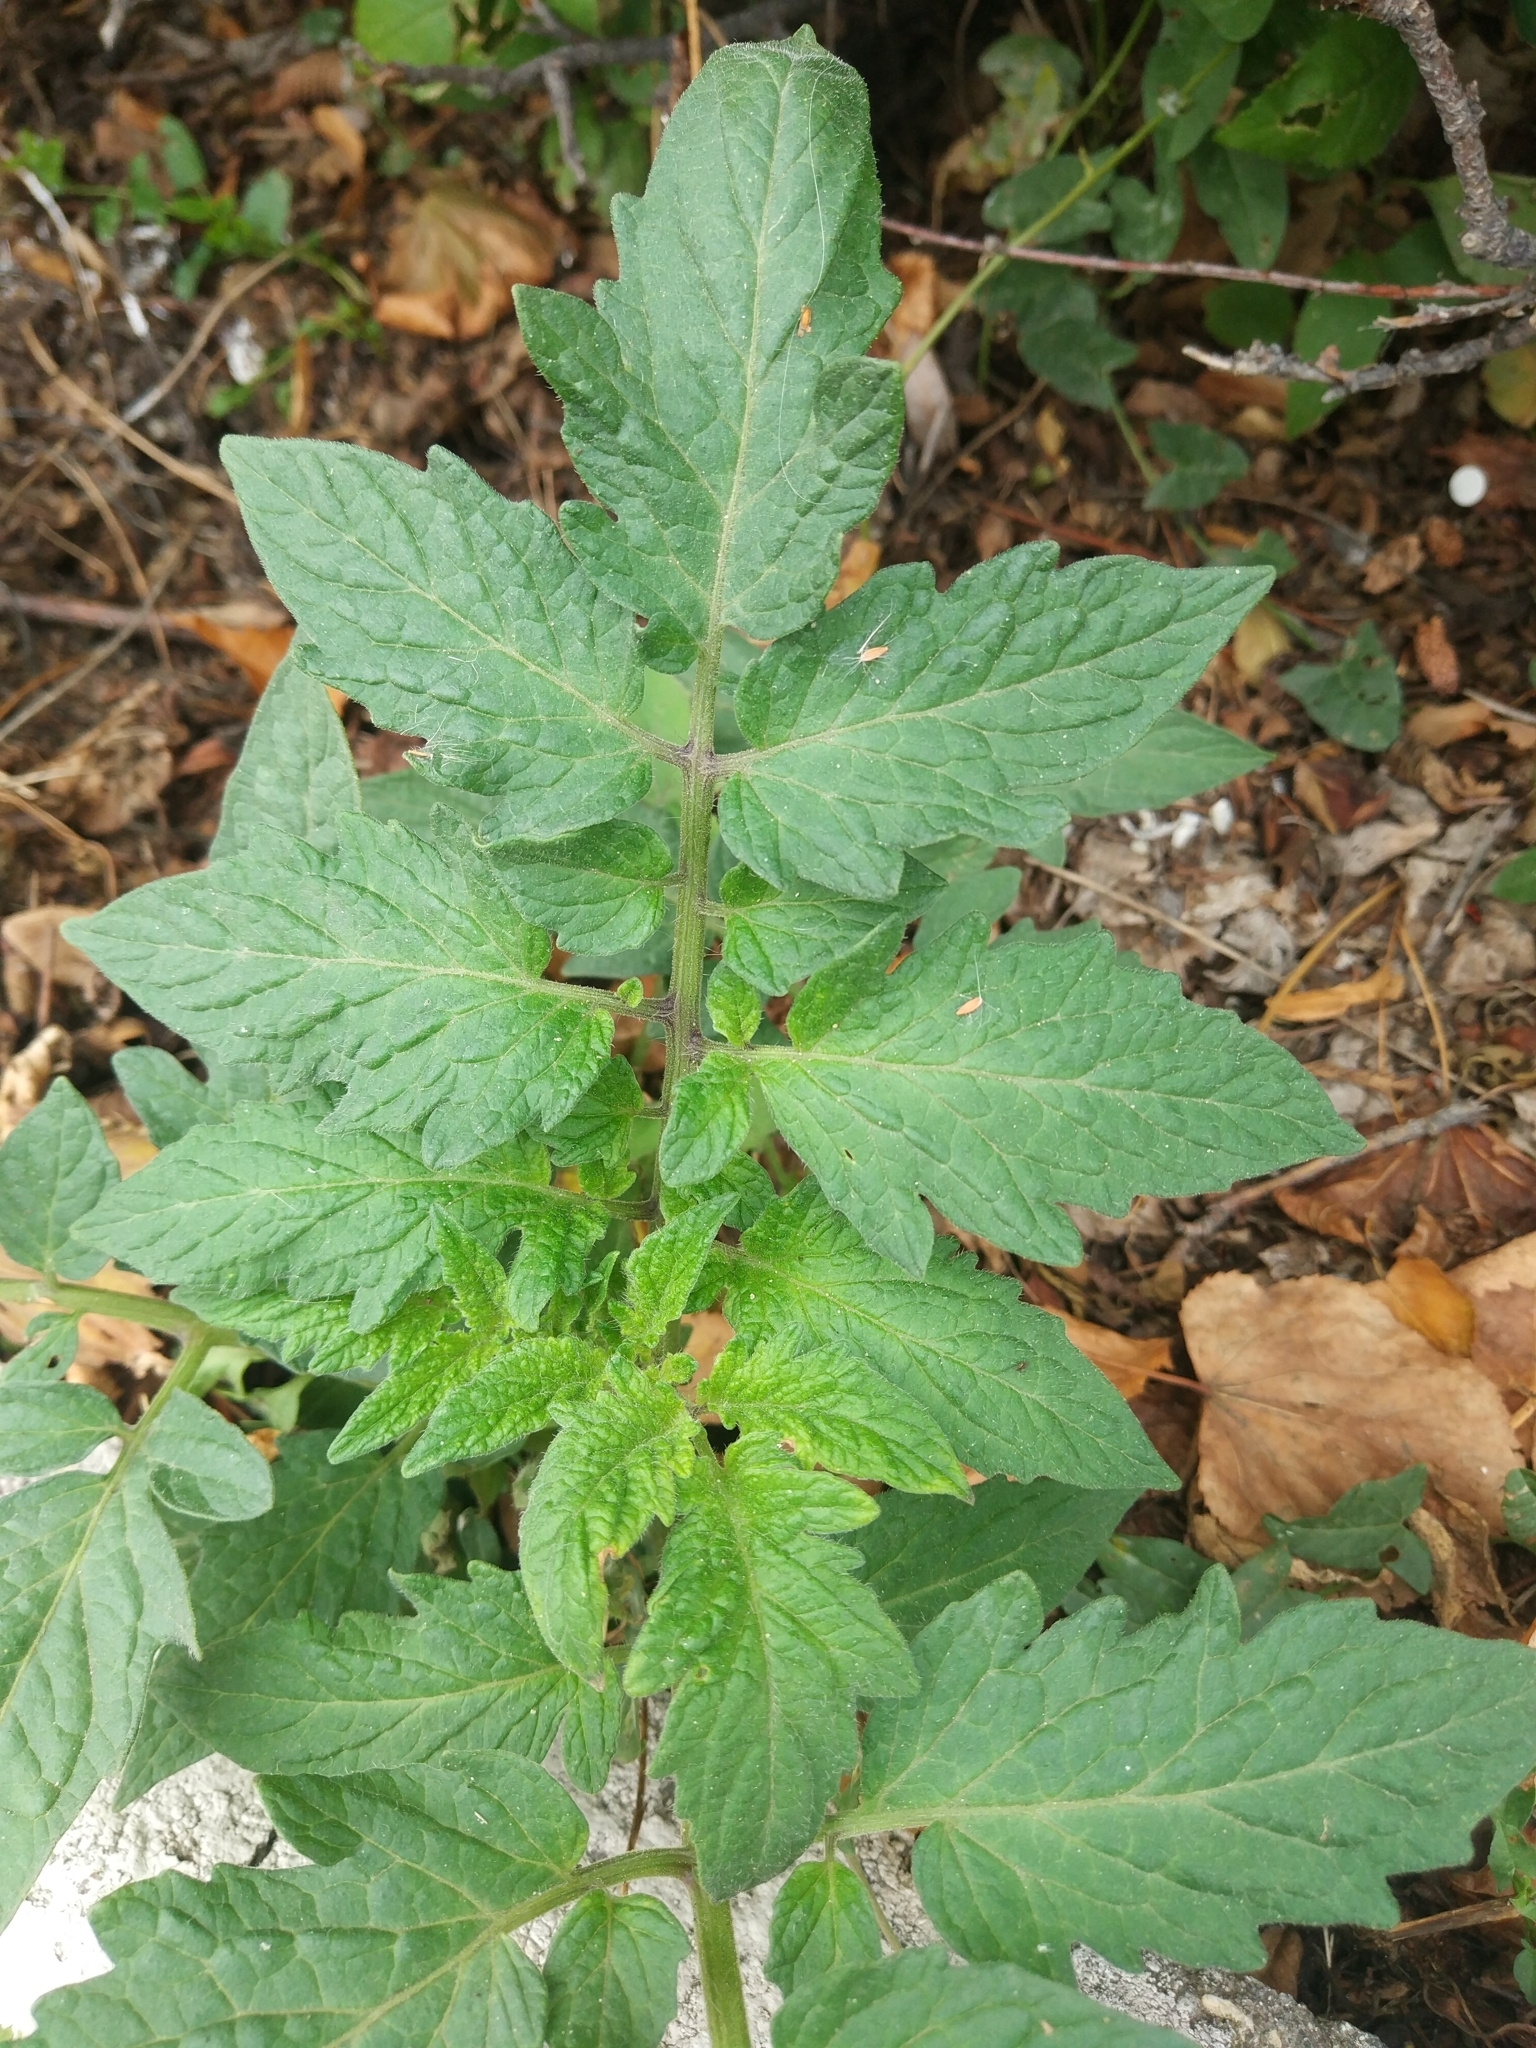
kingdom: Plantae
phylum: Tracheophyta
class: Magnoliopsida
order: Solanales
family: Solanaceae
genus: Solanum
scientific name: Solanum lycopersicum
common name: Garden tomato
